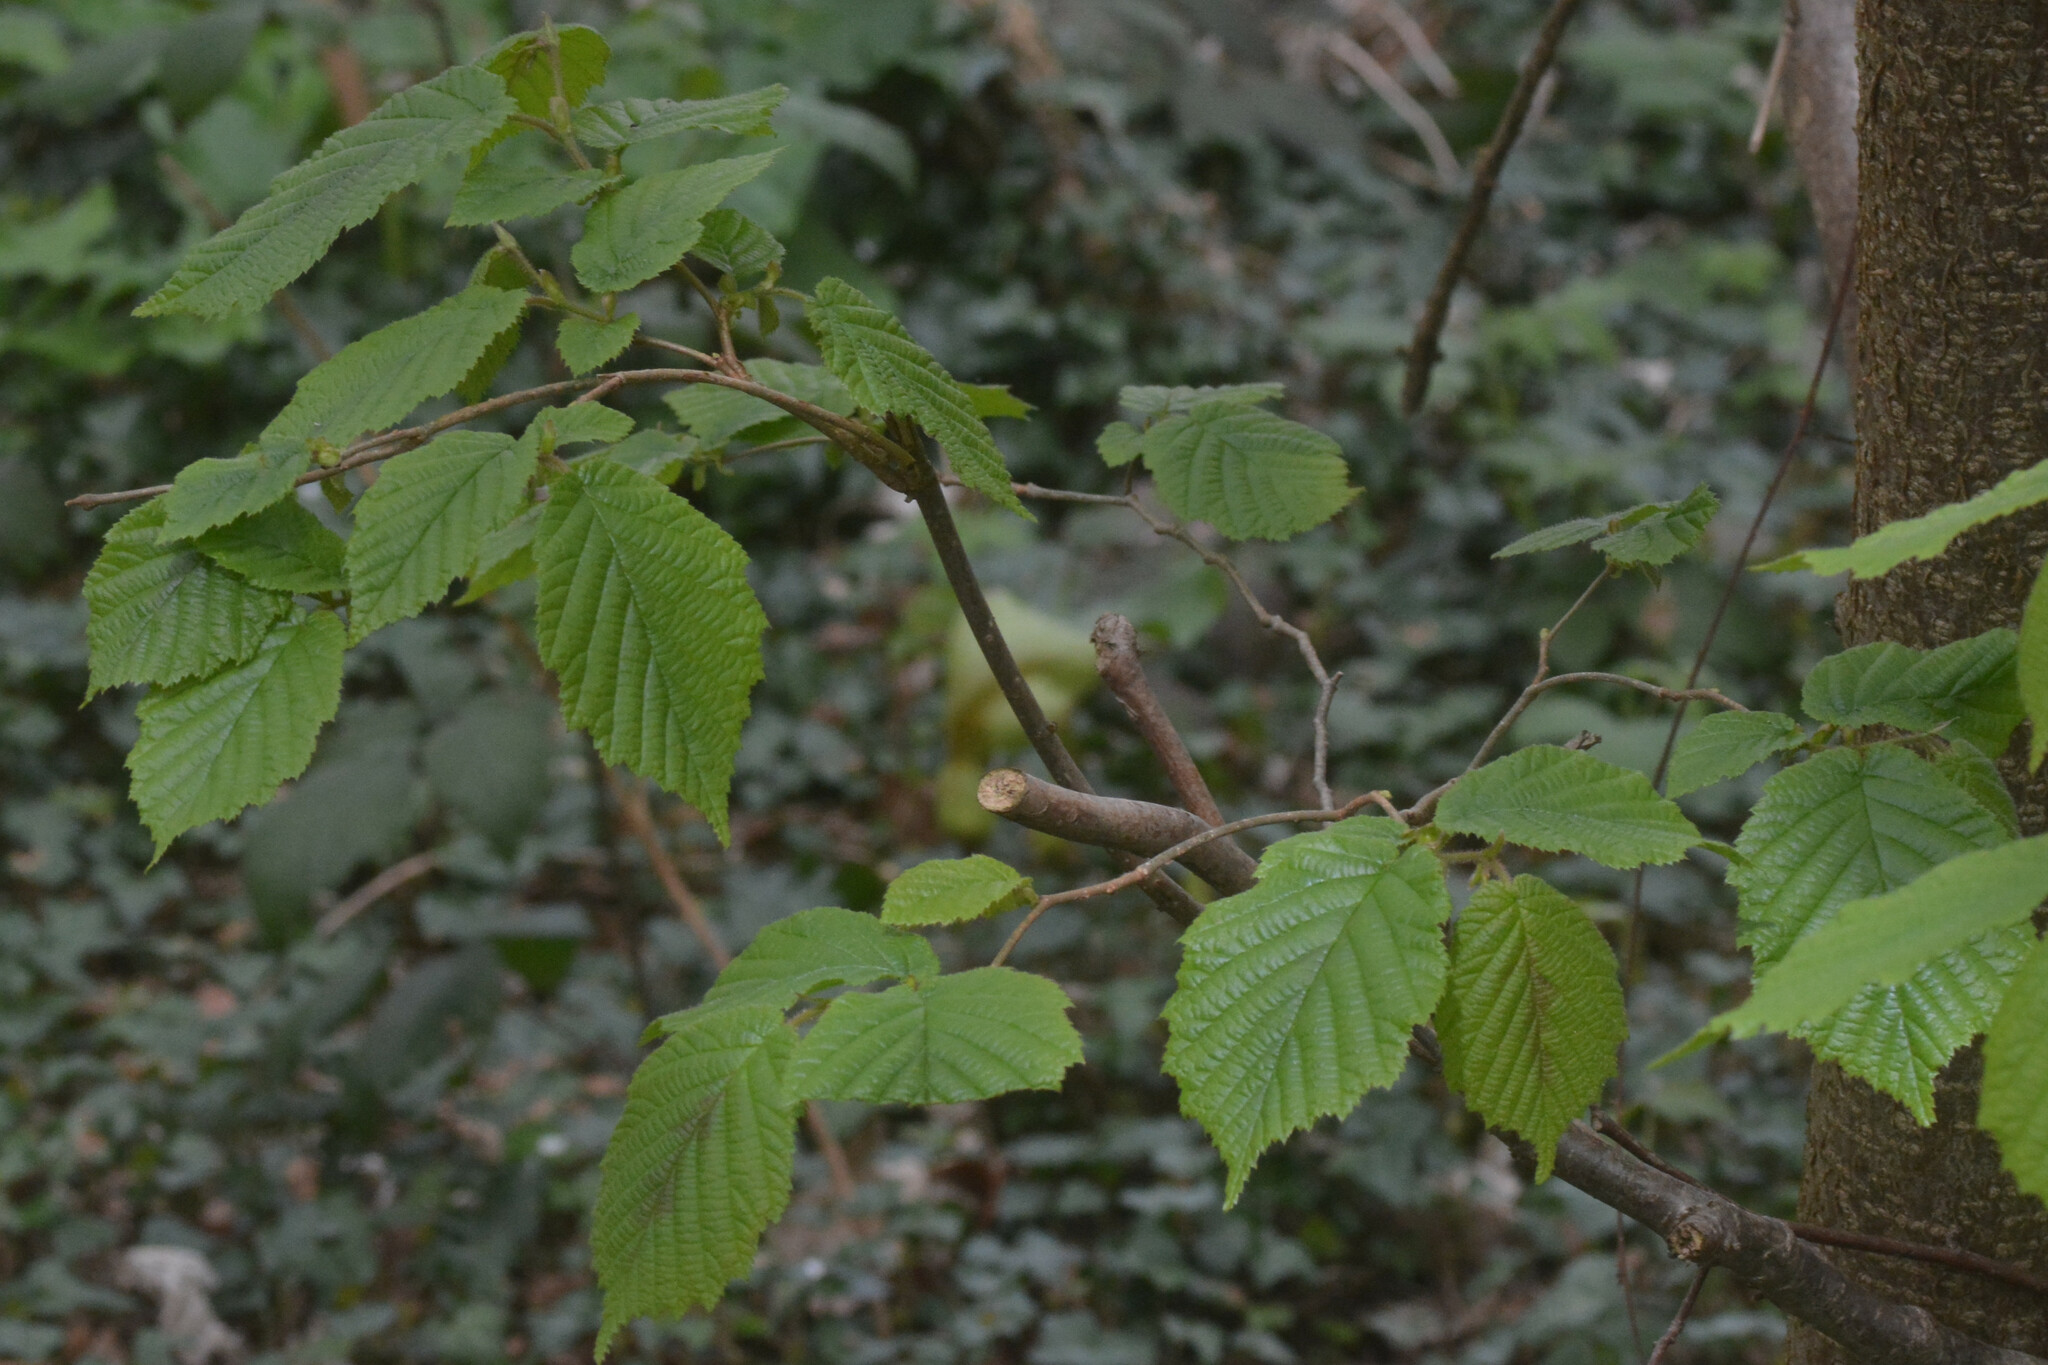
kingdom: Plantae
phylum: Tracheophyta
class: Magnoliopsida
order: Fagales
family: Betulaceae
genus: Corylus
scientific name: Corylus avellana
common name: European hazel
